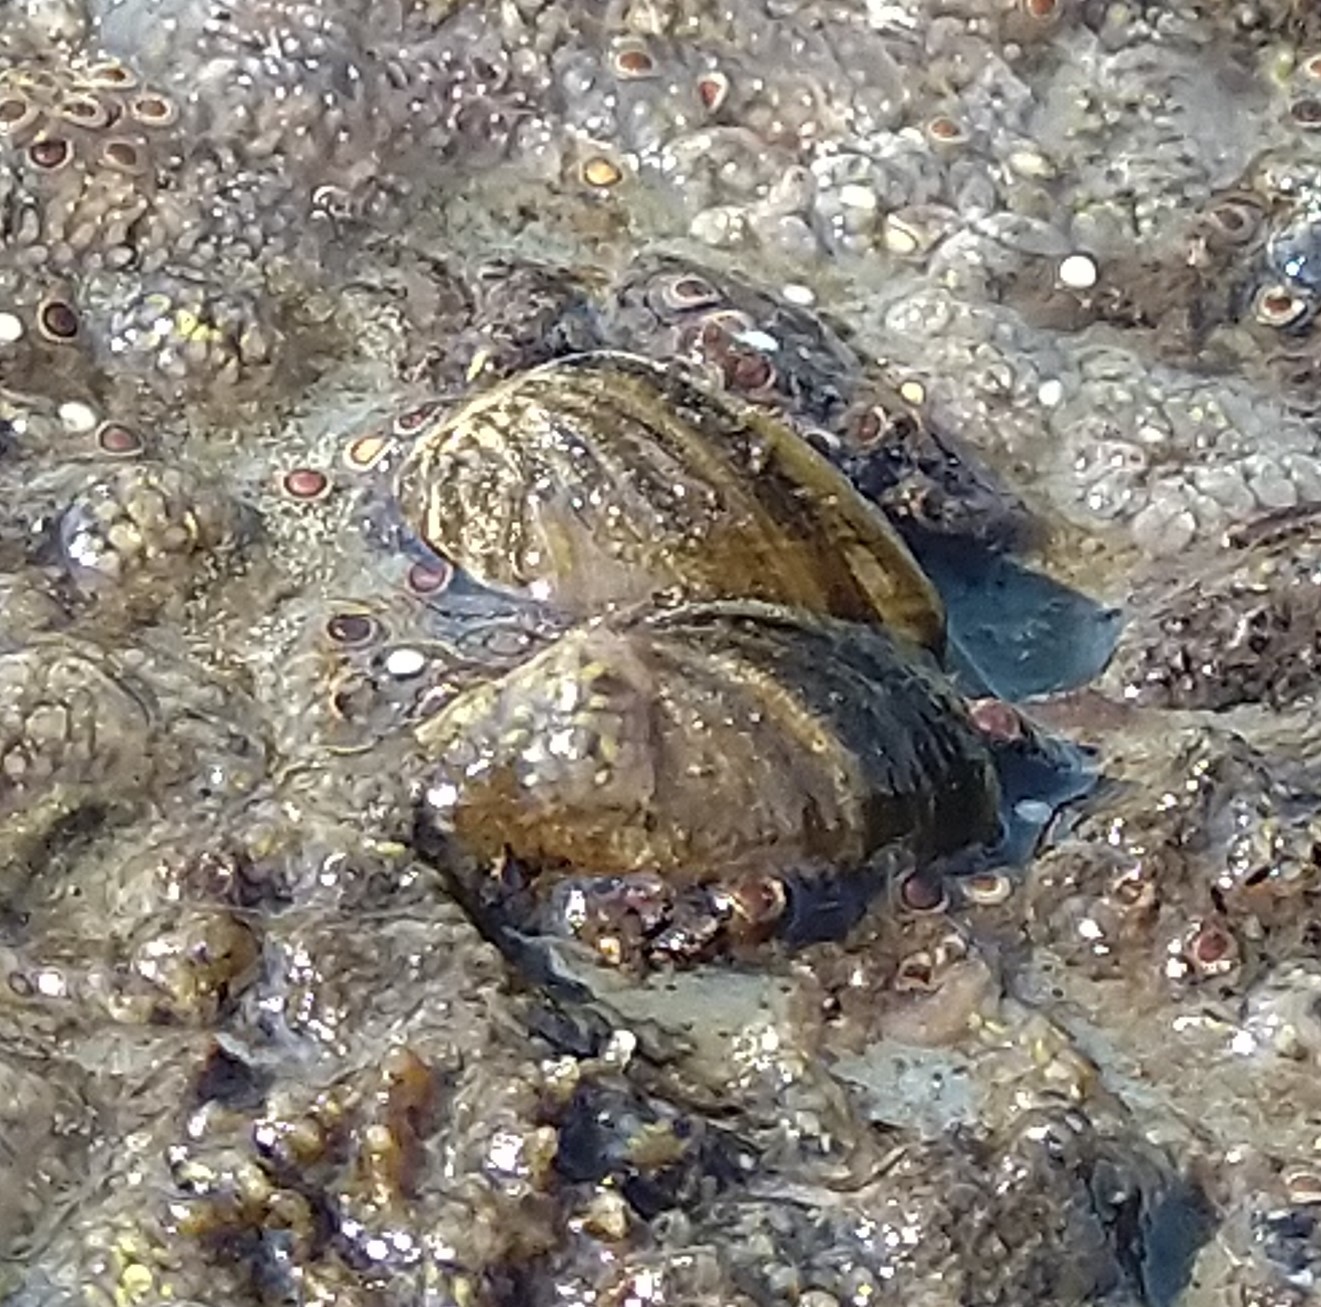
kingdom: Animalia
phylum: Mollusca
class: Bivalvia
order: Myida
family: Dreissenidae
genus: Dreissena
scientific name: Dreissena polymorpha
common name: Zebra mussel
